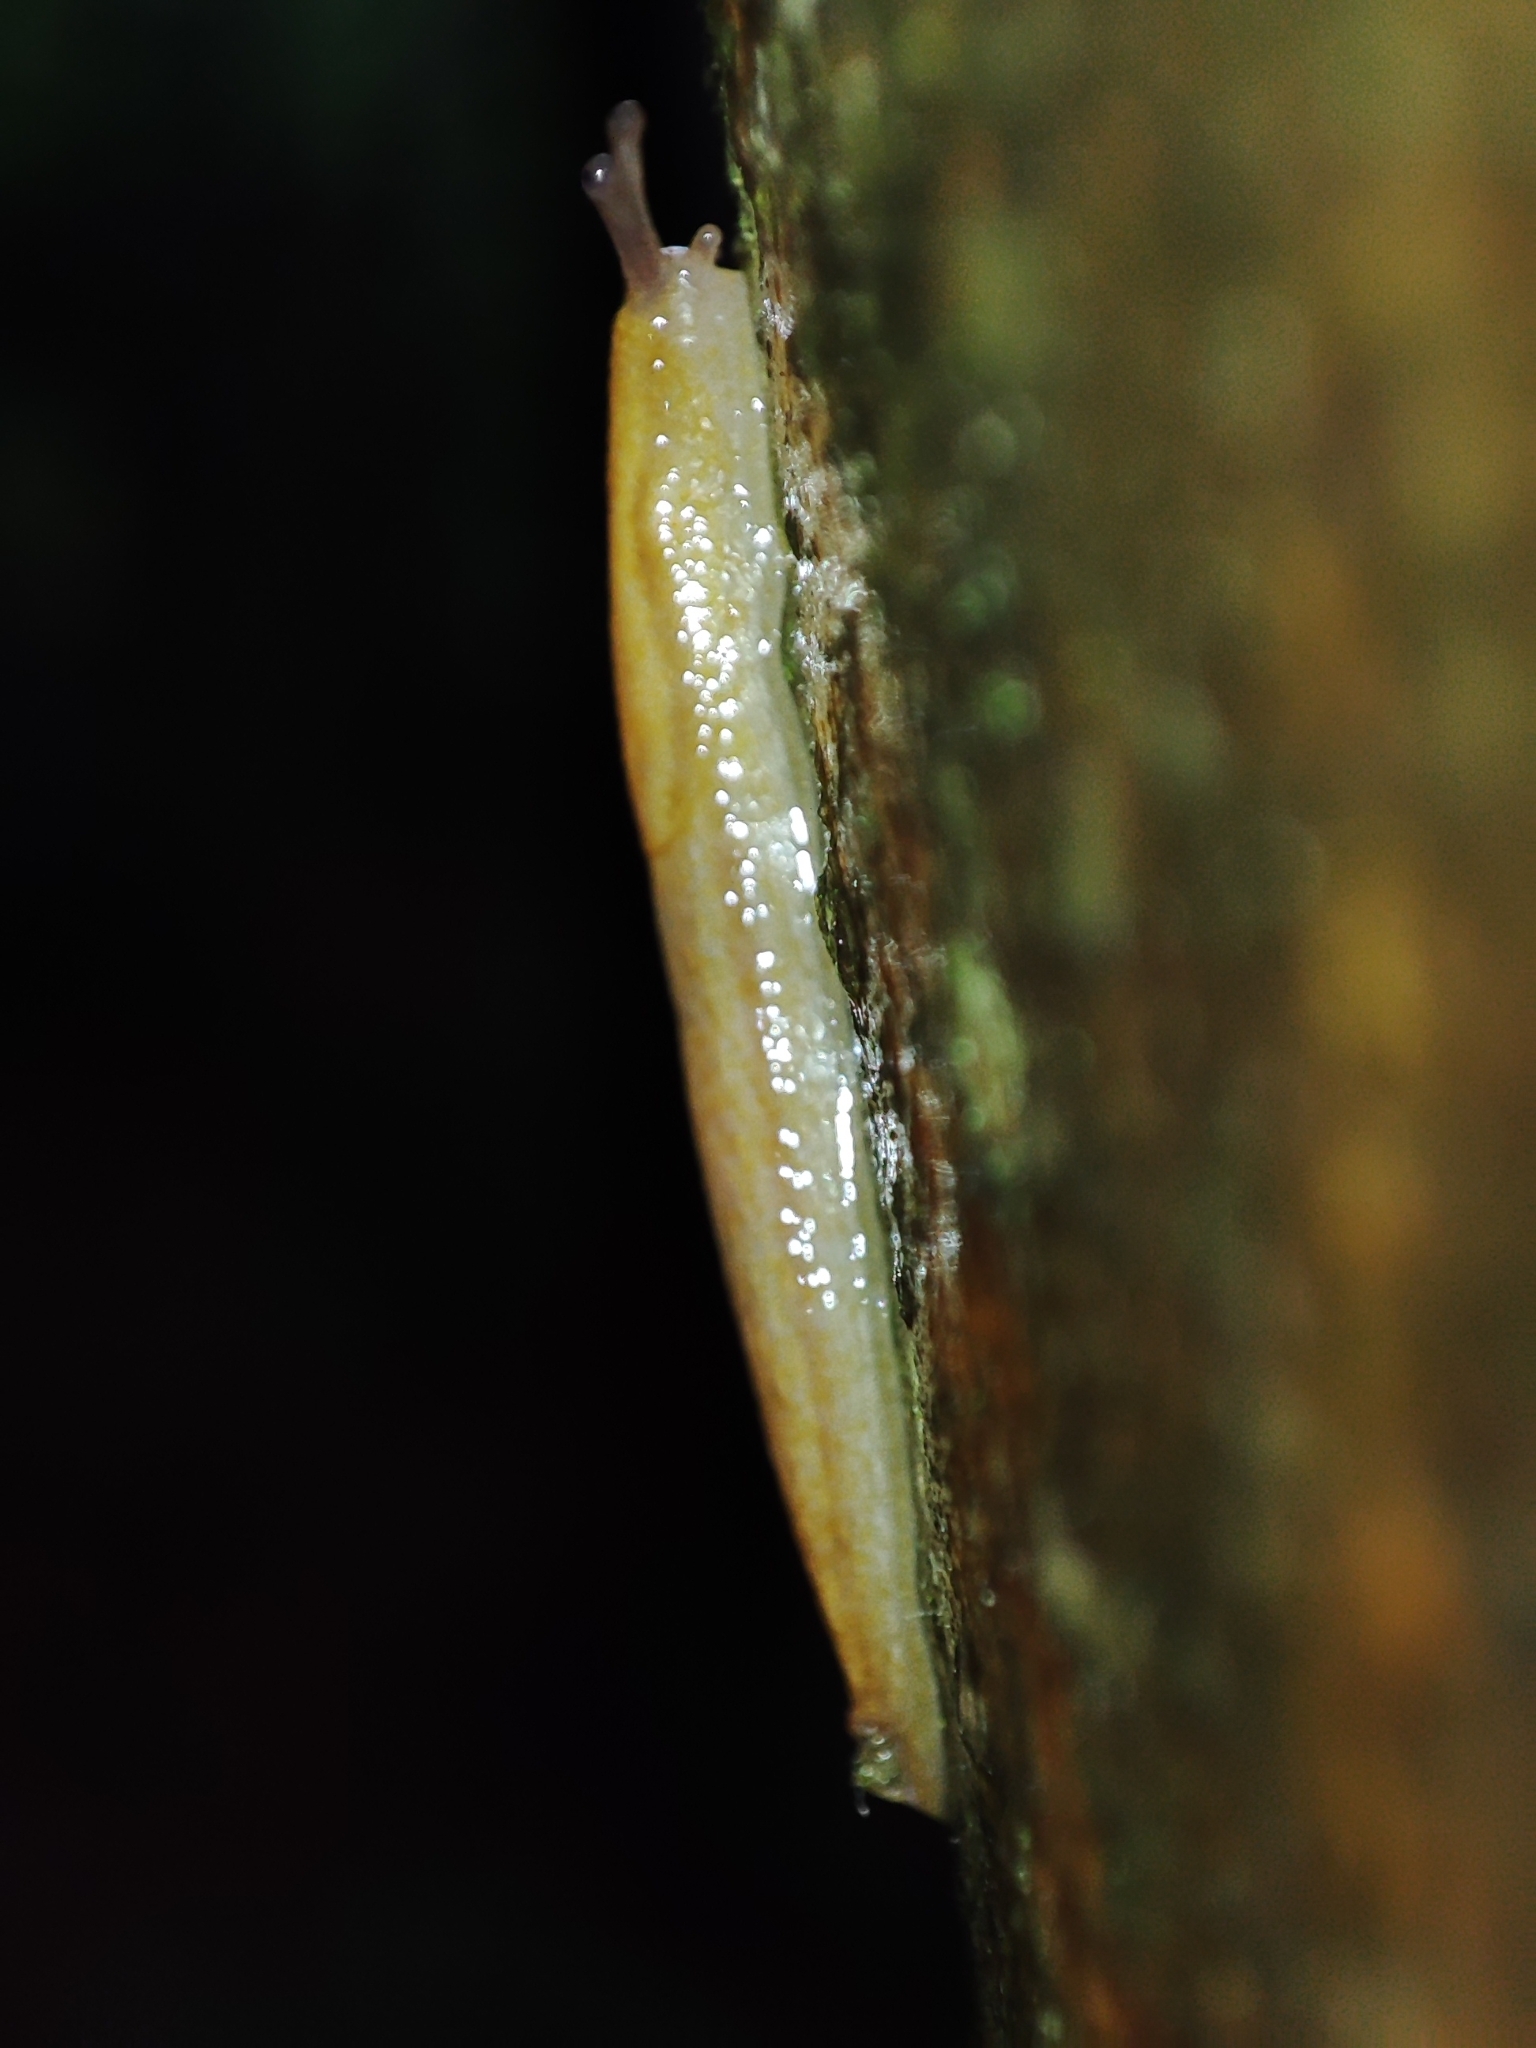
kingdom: Animalia
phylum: Mollusca
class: Gastropoda
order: Stylommatophora
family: Arionidae
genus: Arion
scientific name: Arion fuscus
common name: Northern dusky slug
